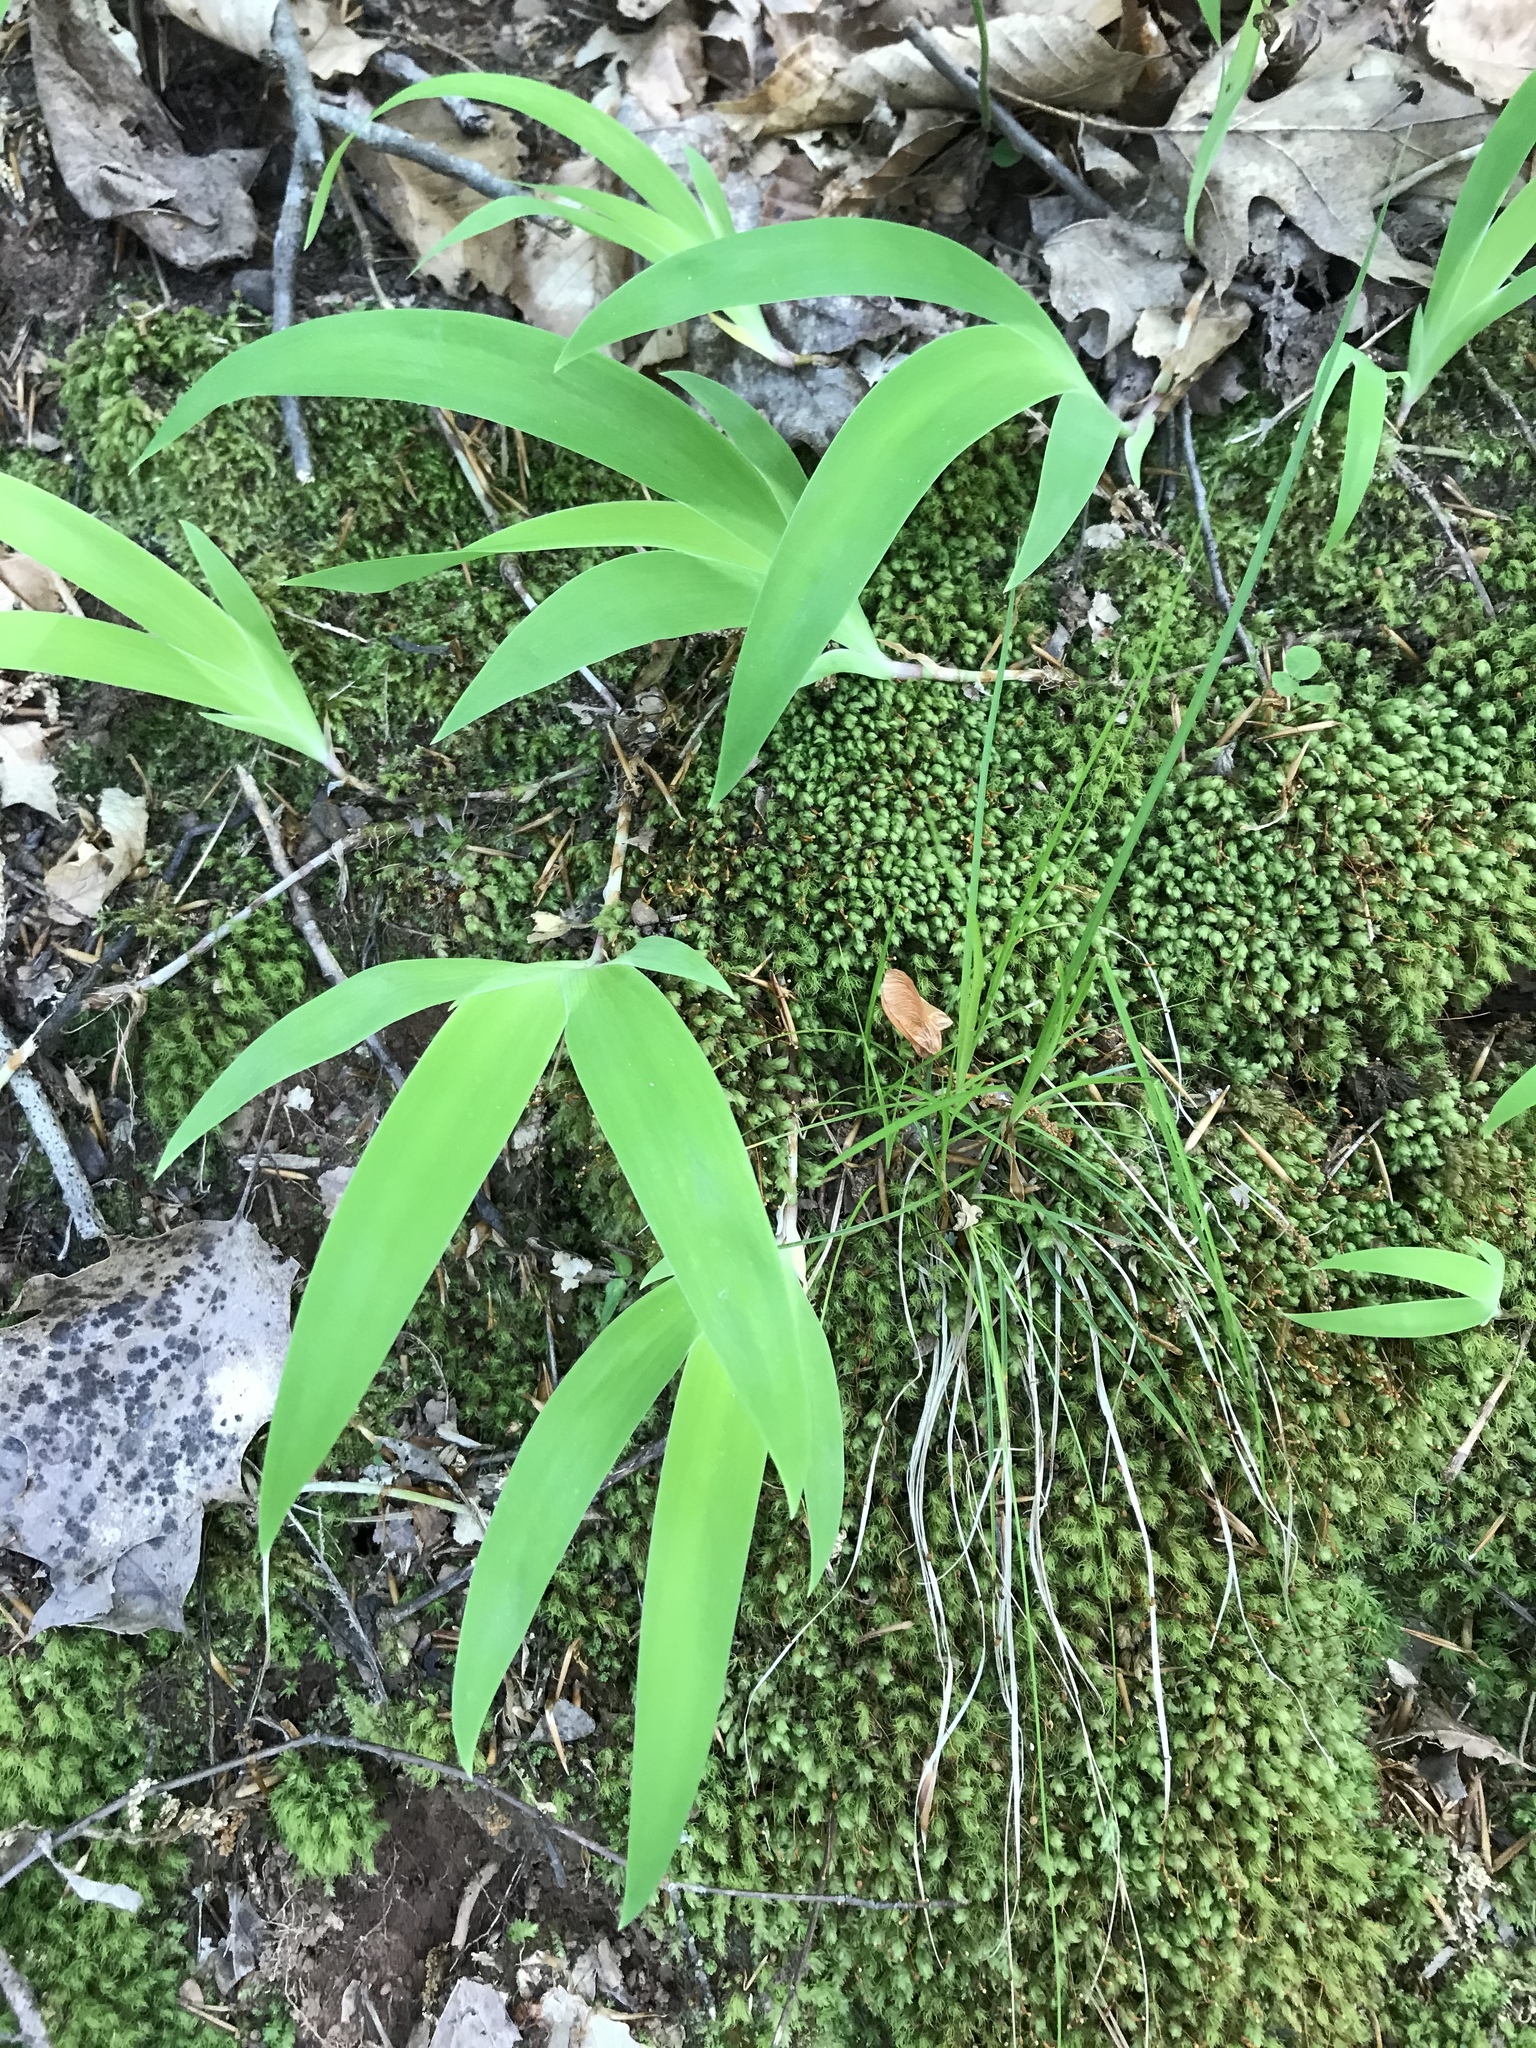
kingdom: Plantae
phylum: Tracheophyta
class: Liliopsida
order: Asparagales
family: Iridaceae
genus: Iris
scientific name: Iris cristata
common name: Crested iris
